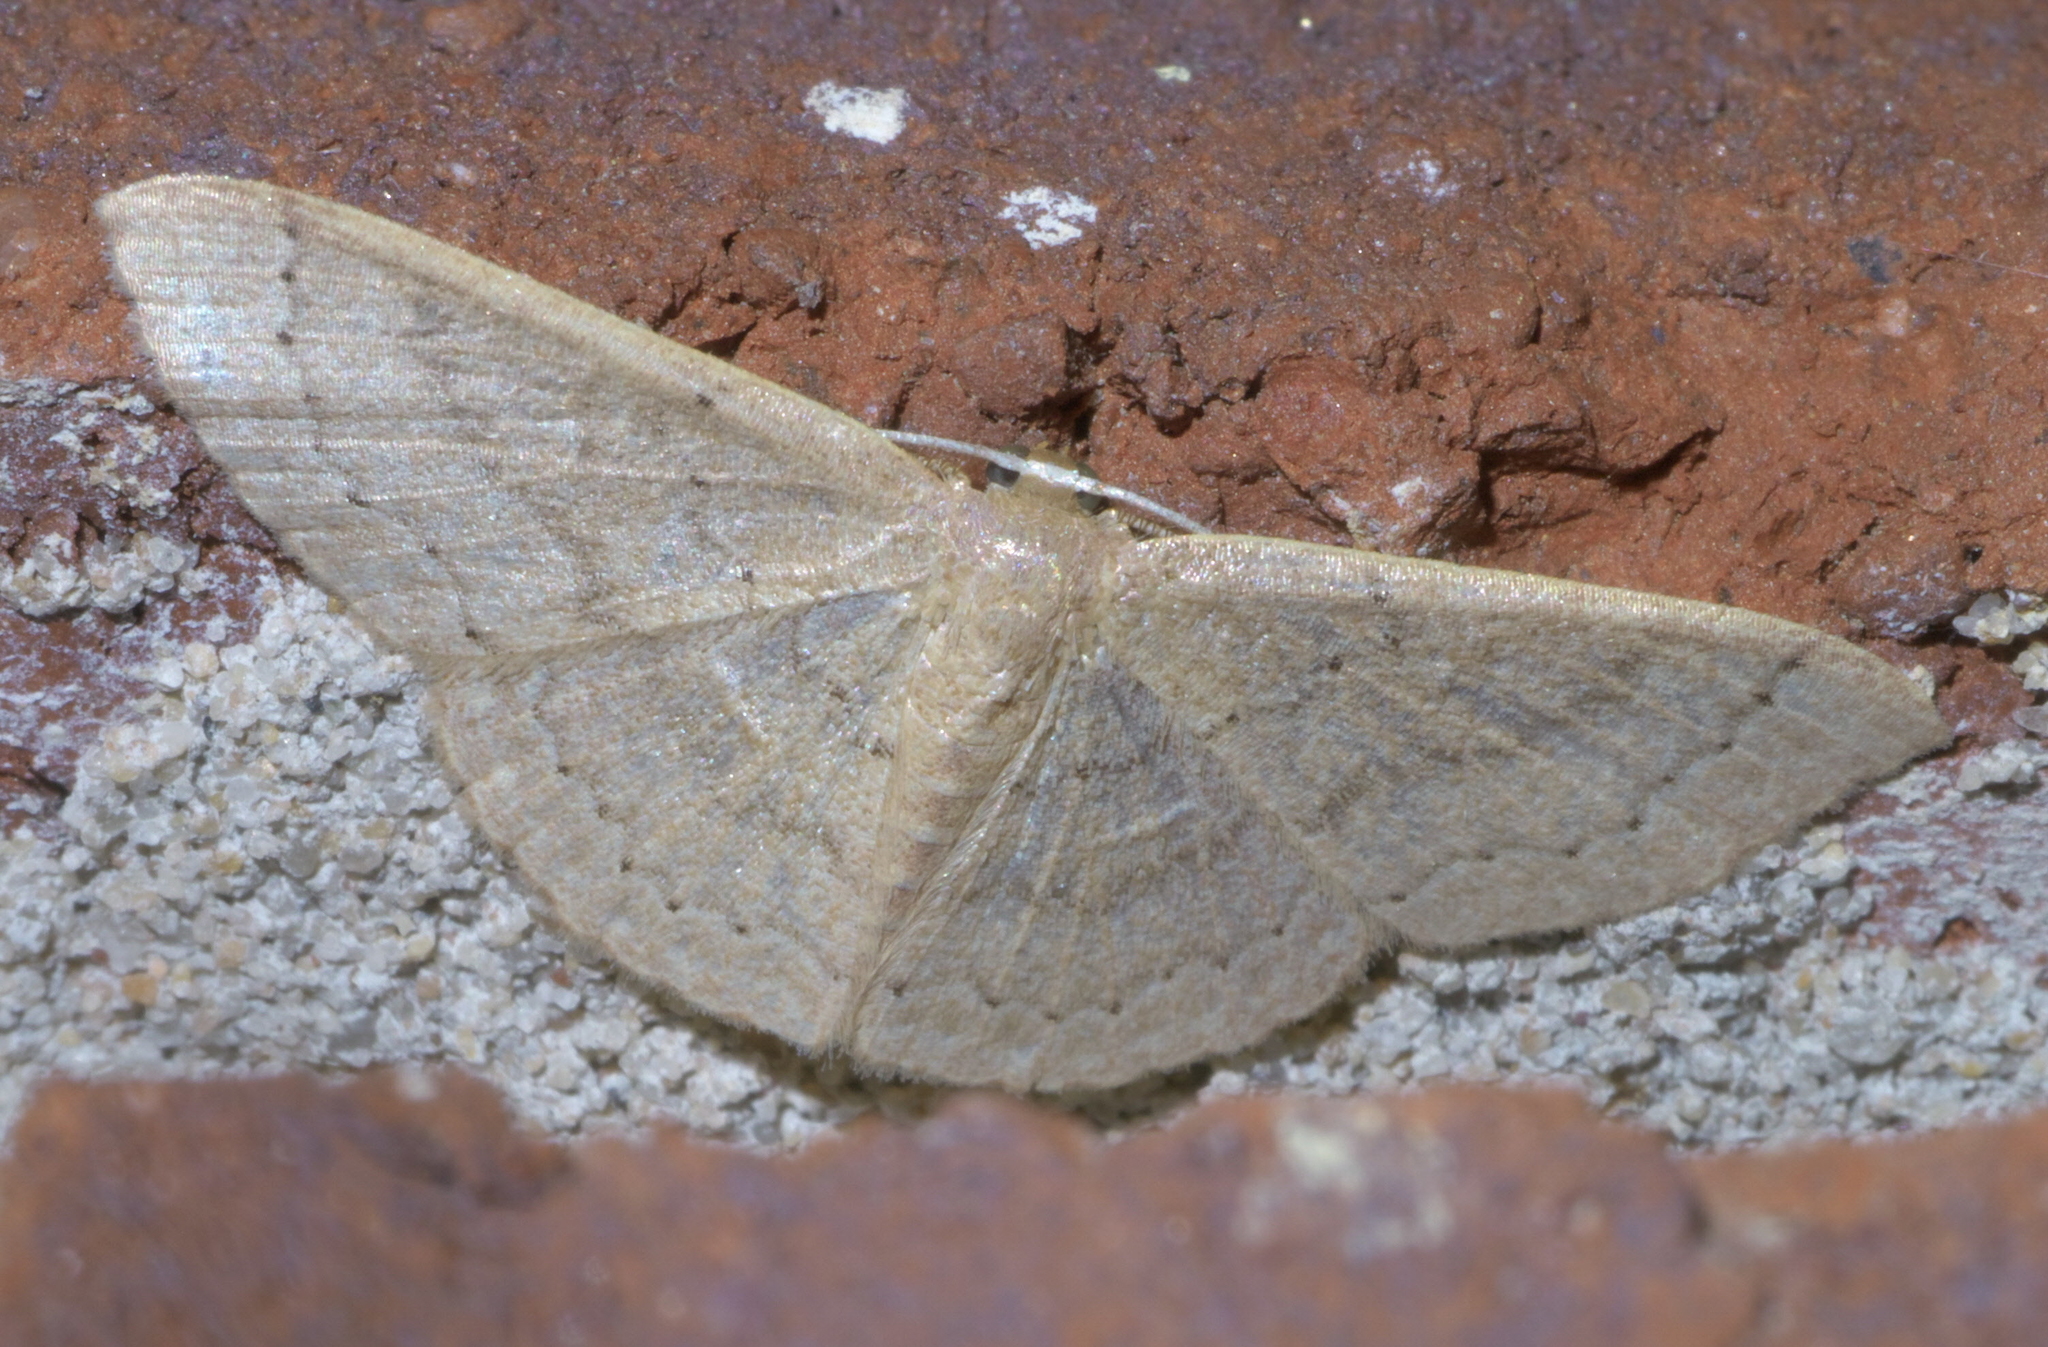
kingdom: Animalia
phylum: Arthropoda
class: Insecta
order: Lepidoptera
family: Geometridae
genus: Pleuroprucha
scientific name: Pleuroprucha insulsaria
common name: Common tan wave
